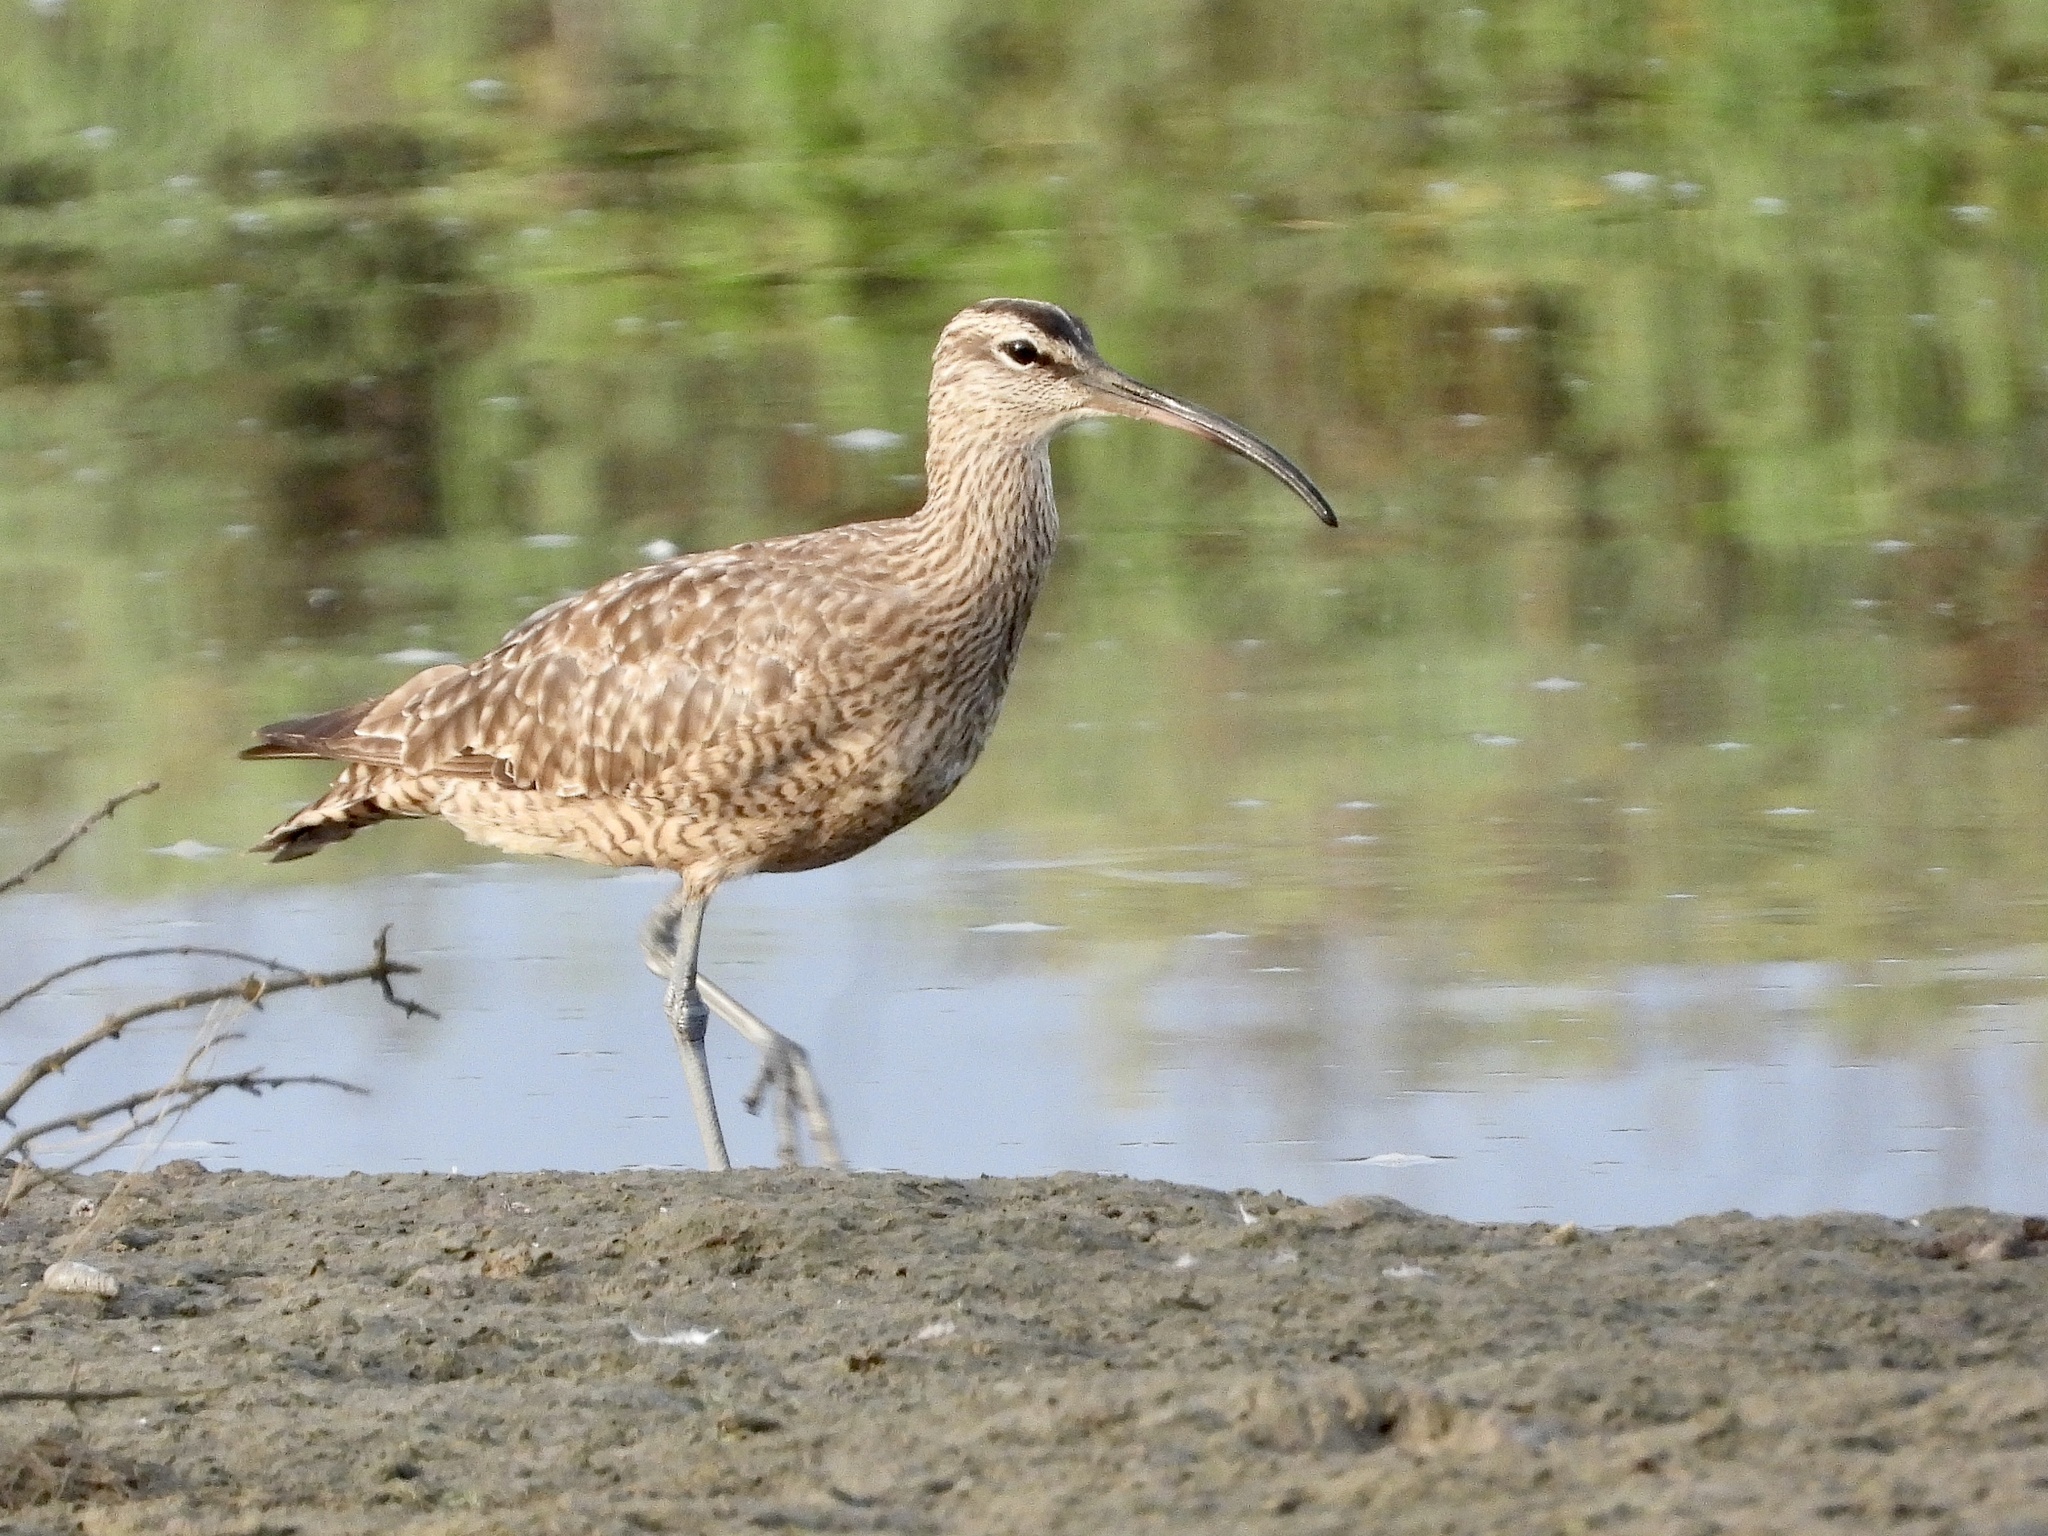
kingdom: Animalia
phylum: Chordata
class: Aves
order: Charadriiformes
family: Scolopacidae
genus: Numenius
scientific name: Numenius phaeopus
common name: Whimbrel
